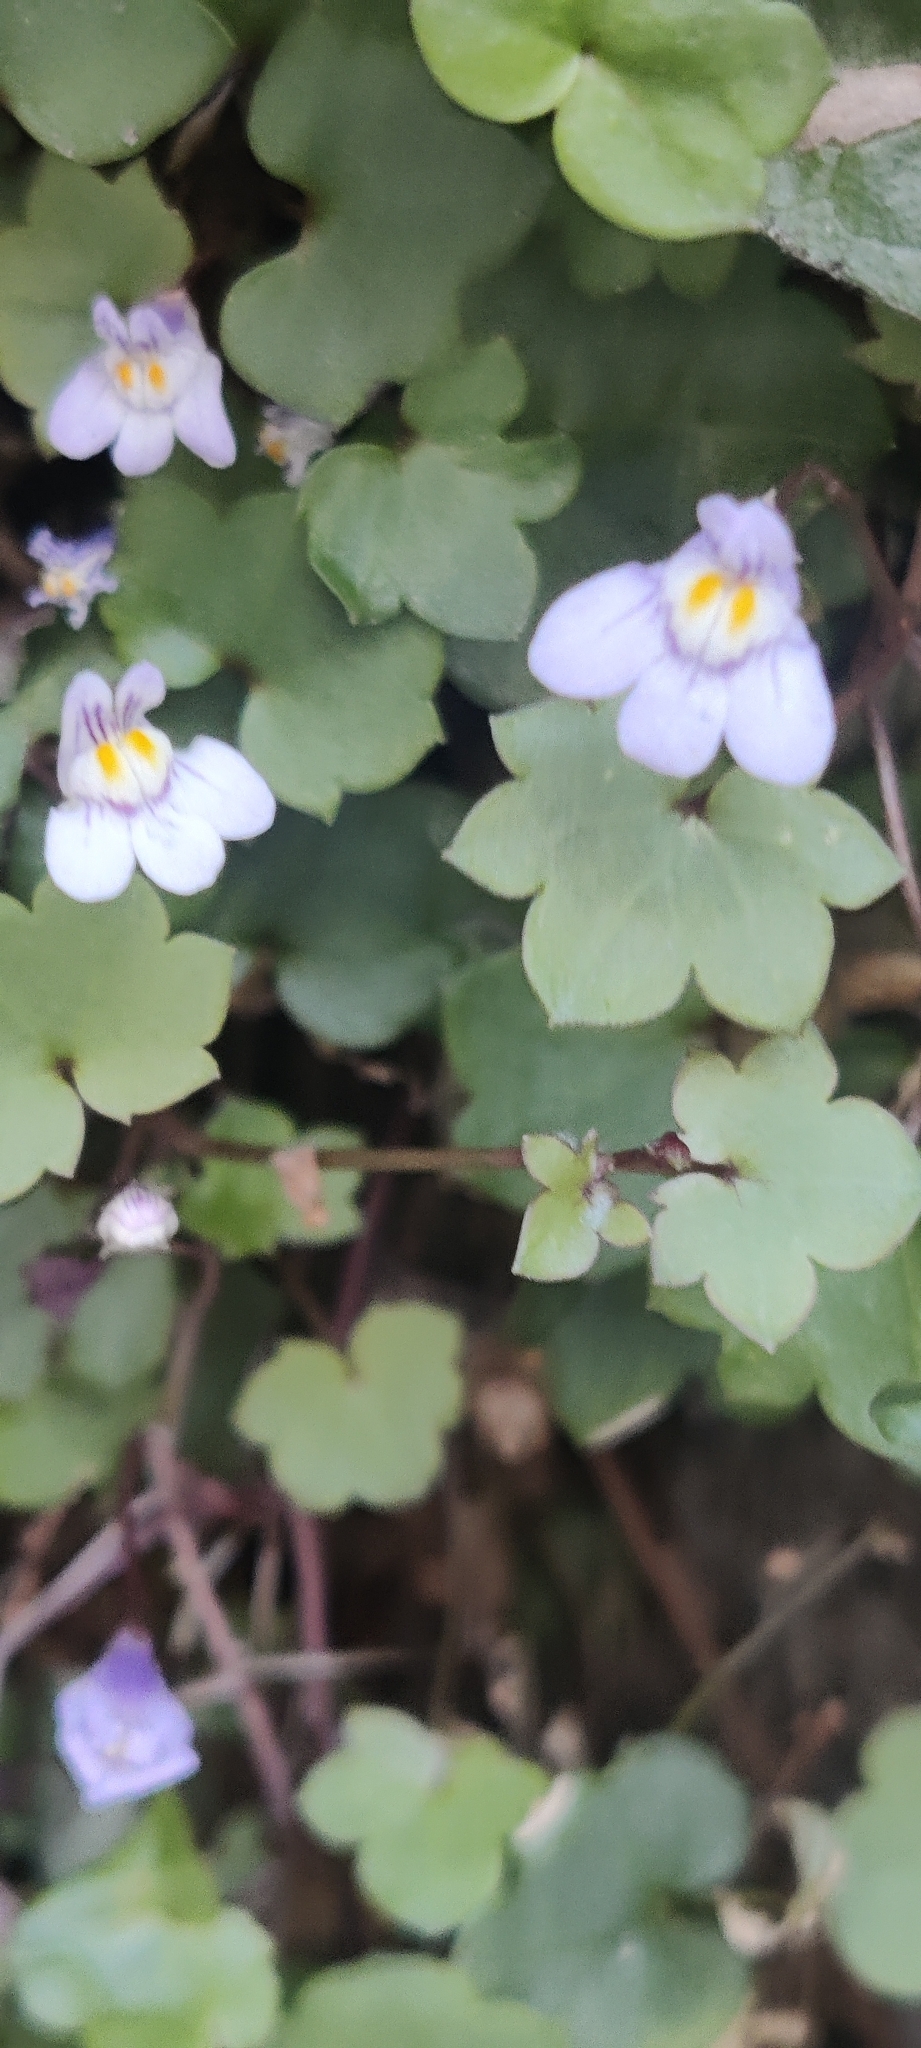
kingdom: Plantae
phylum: Tracheophyta
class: Magnoliopsida
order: Lamiales
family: Plantaginaceae
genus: Cymbalaria
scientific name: Cymbalaria muralis
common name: Ivy-leaved toadflax
